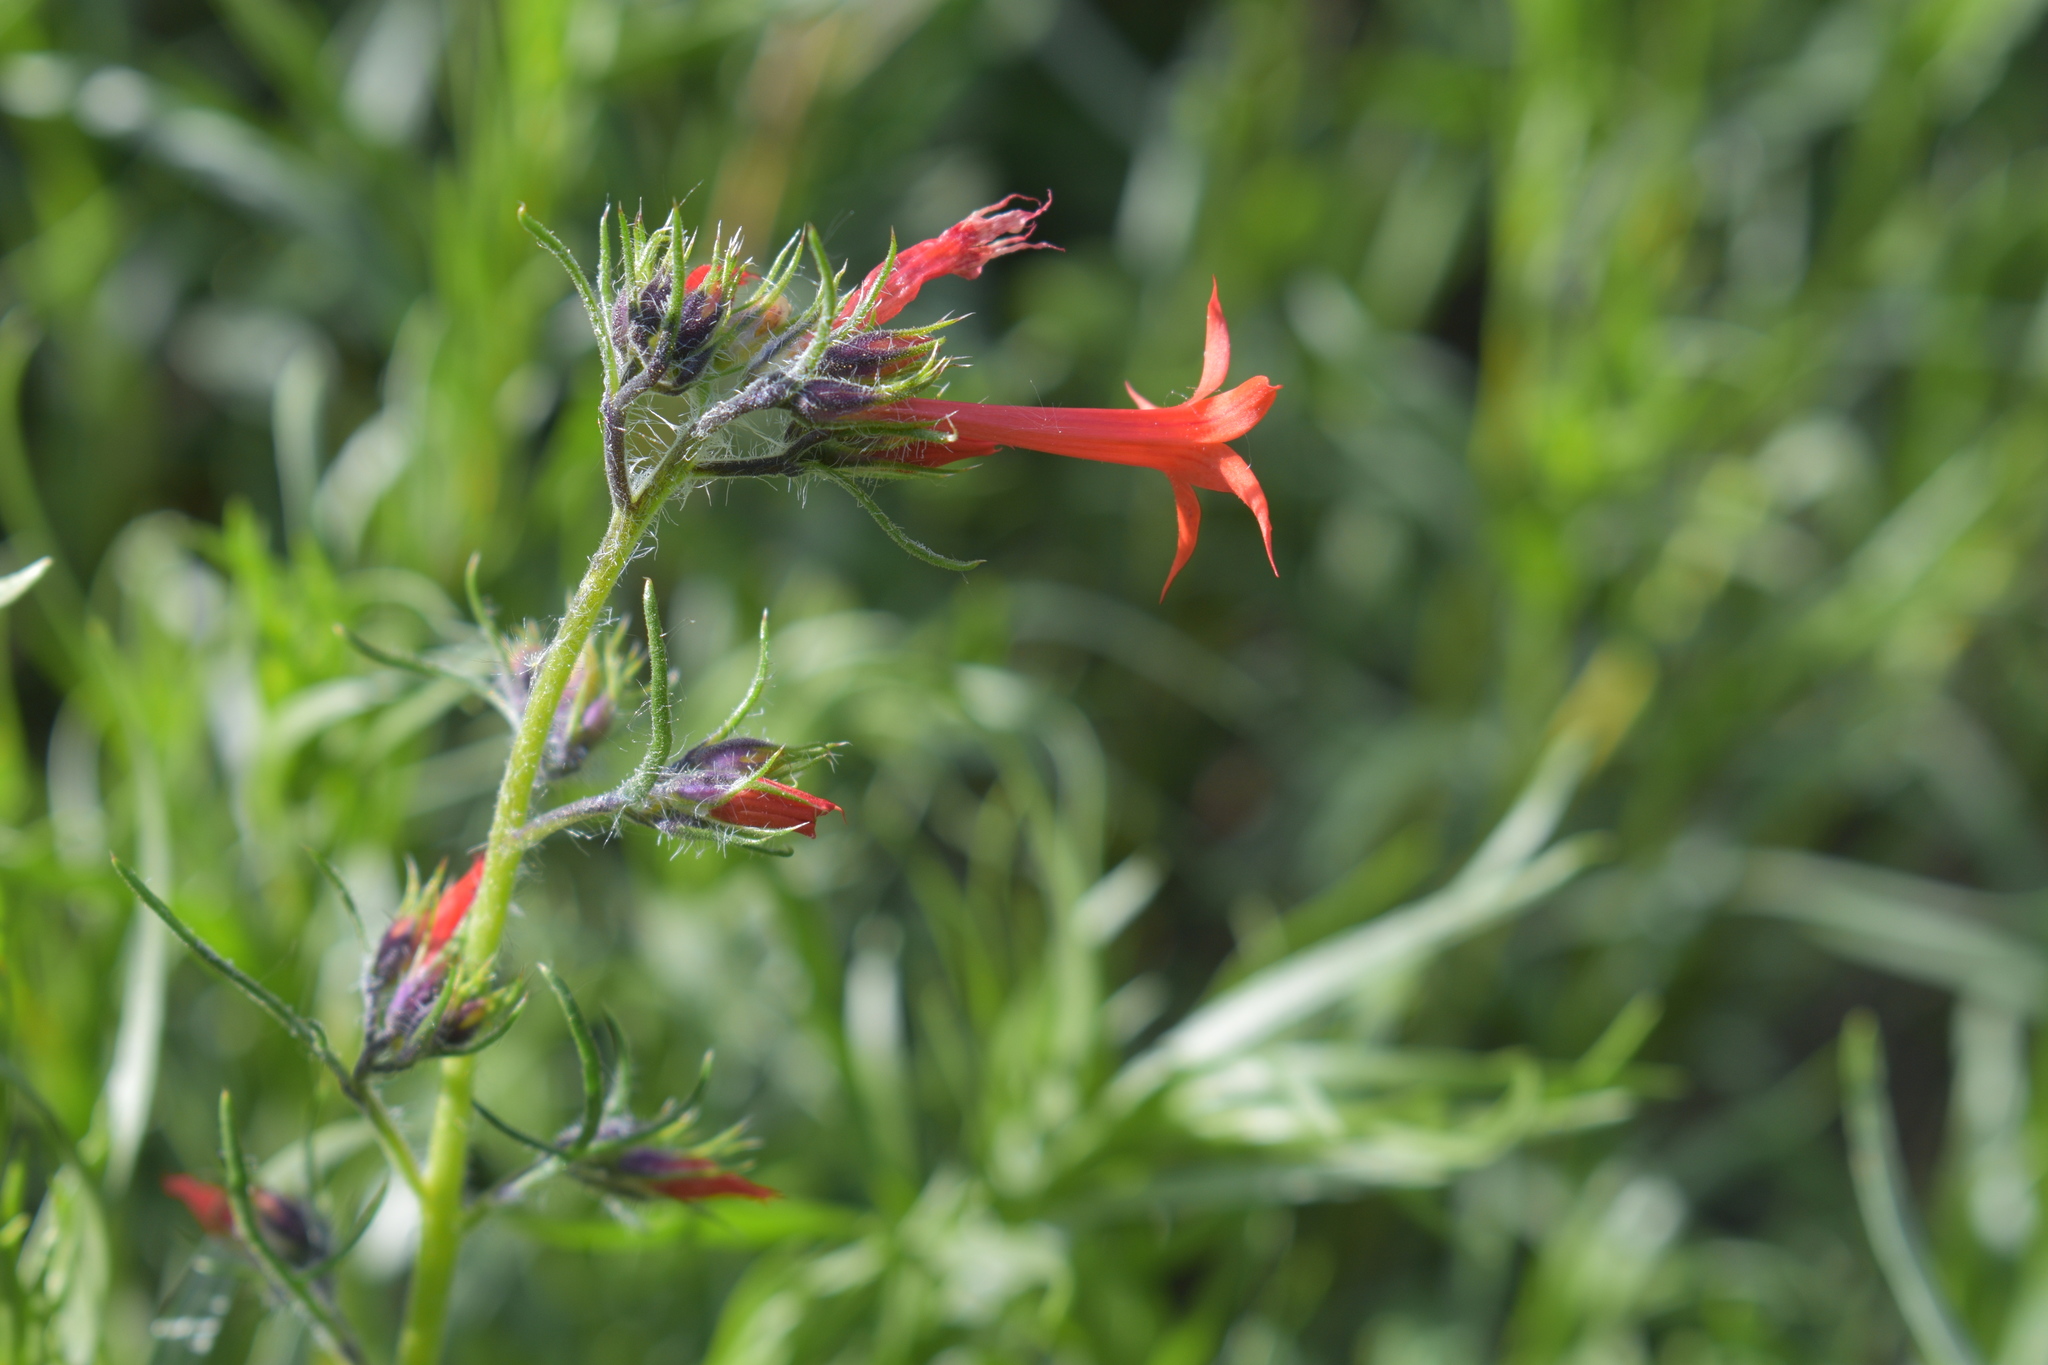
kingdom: Plantae
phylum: Tracheophyta
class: Magnoliopsida
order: Ericales
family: Polemoniaceae
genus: Ipomopsis
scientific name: Ipomopsis aggregata
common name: Scarlet gilia
